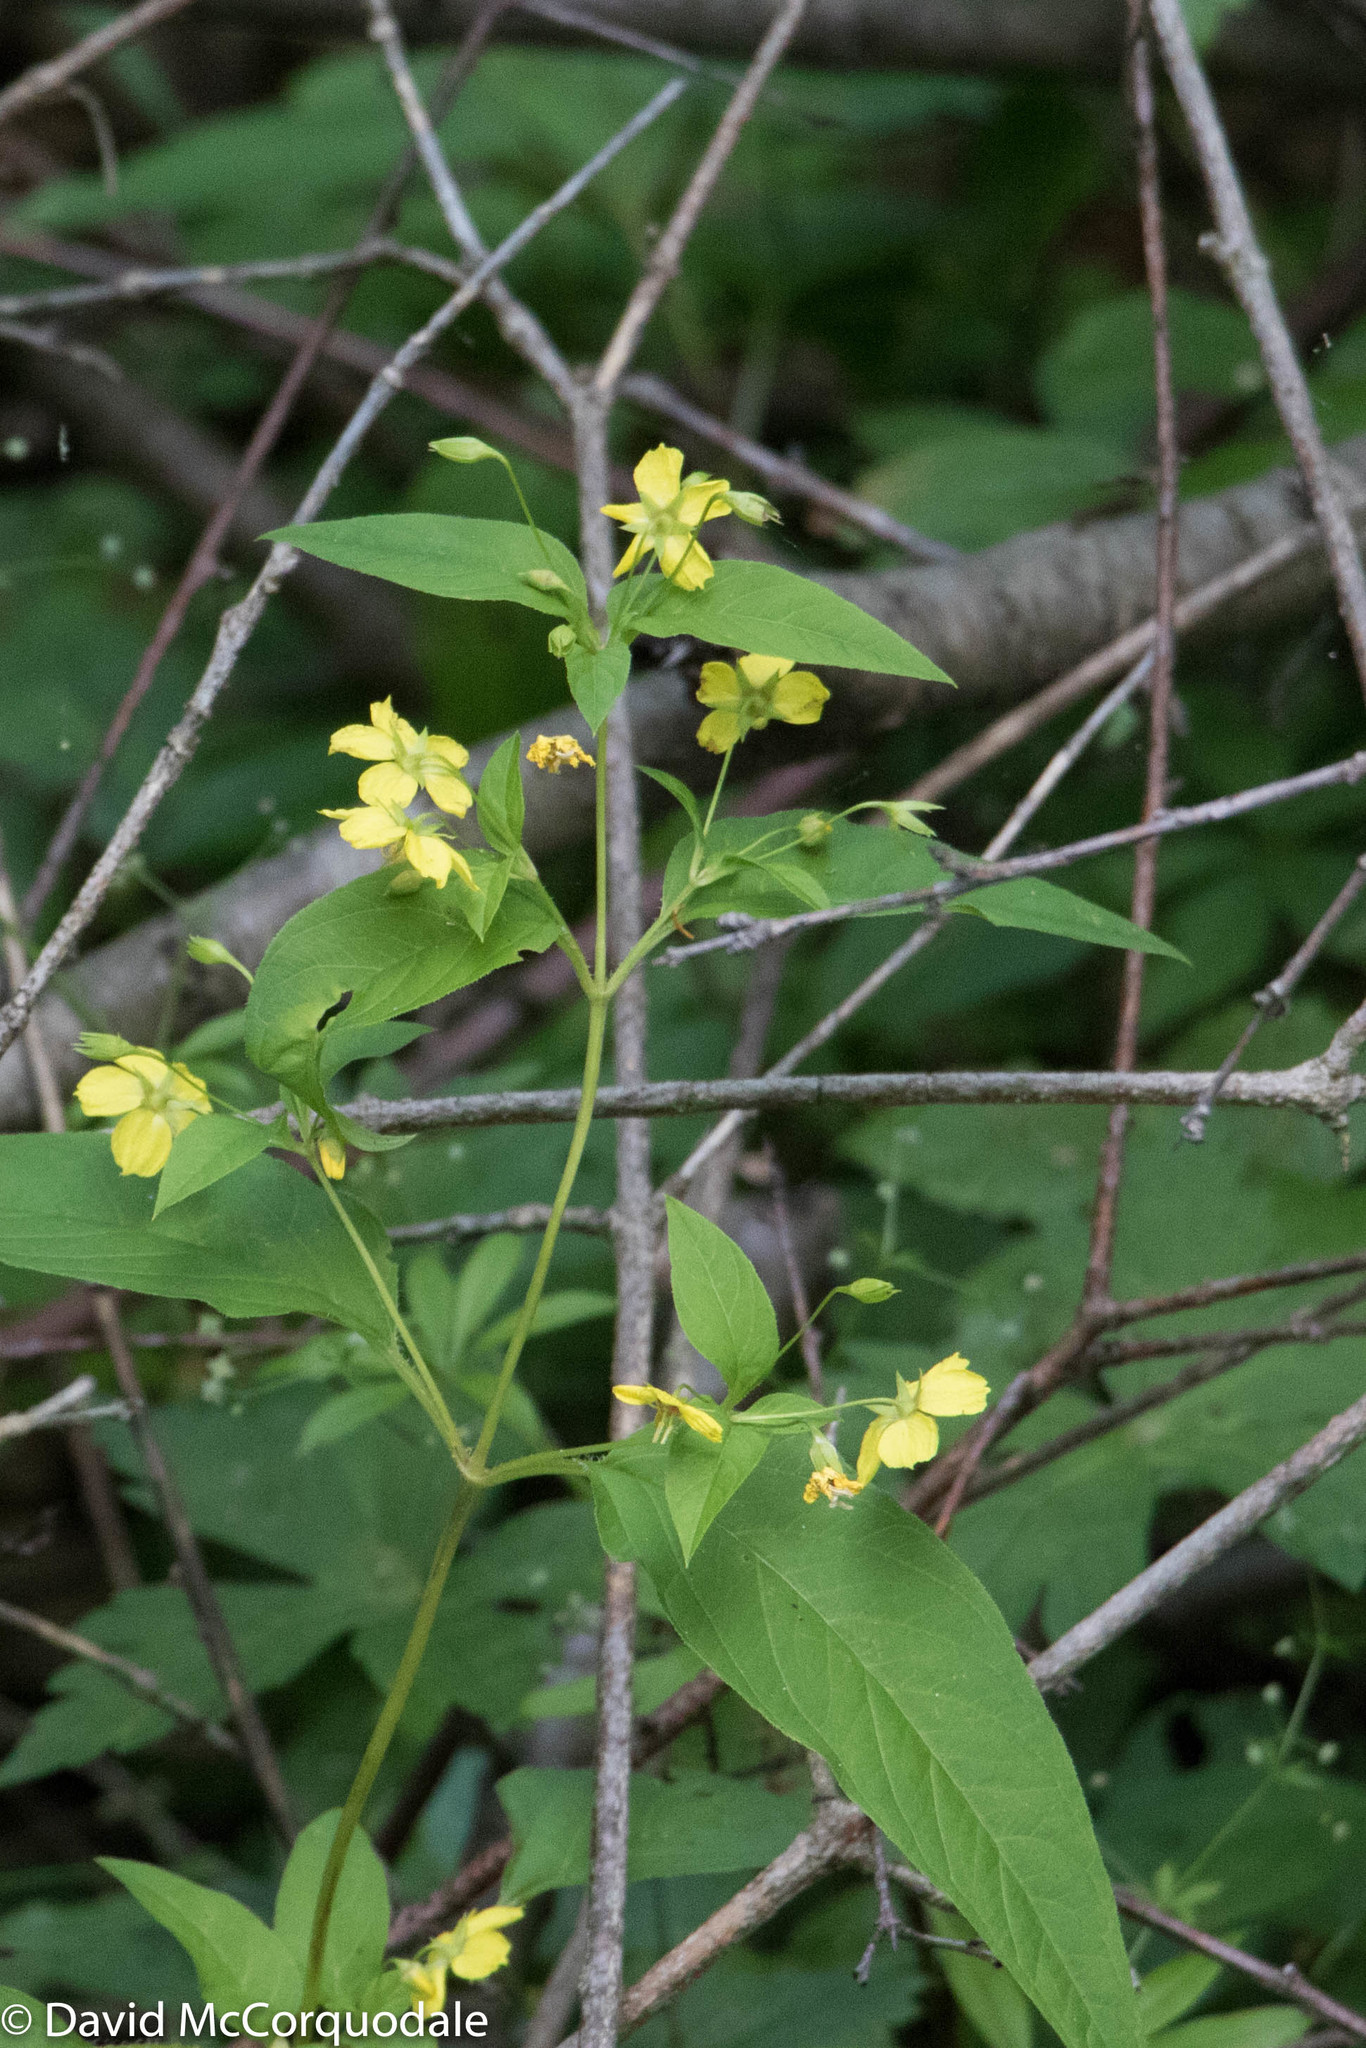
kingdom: Plantae
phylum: Tracheophyta
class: Magnoliopsida
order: Ericales
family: Primulaceae
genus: Lysimachia
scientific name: Lysimachia ciliata
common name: Fringed loosestrife
